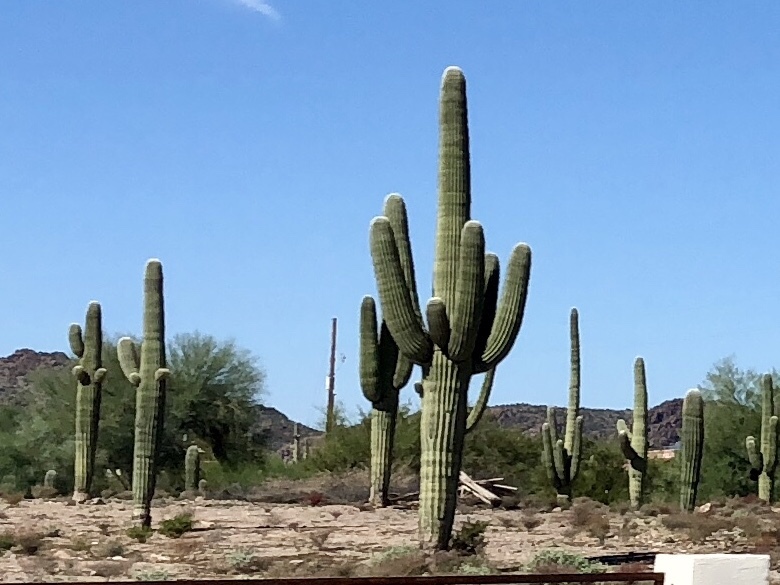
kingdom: Plantae
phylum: Tracheophyta
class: Magnoliopsida
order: Caryophyllales
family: Cactaceae
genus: Carnegiea
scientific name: Carnegiea gigantea
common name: Saguaro
